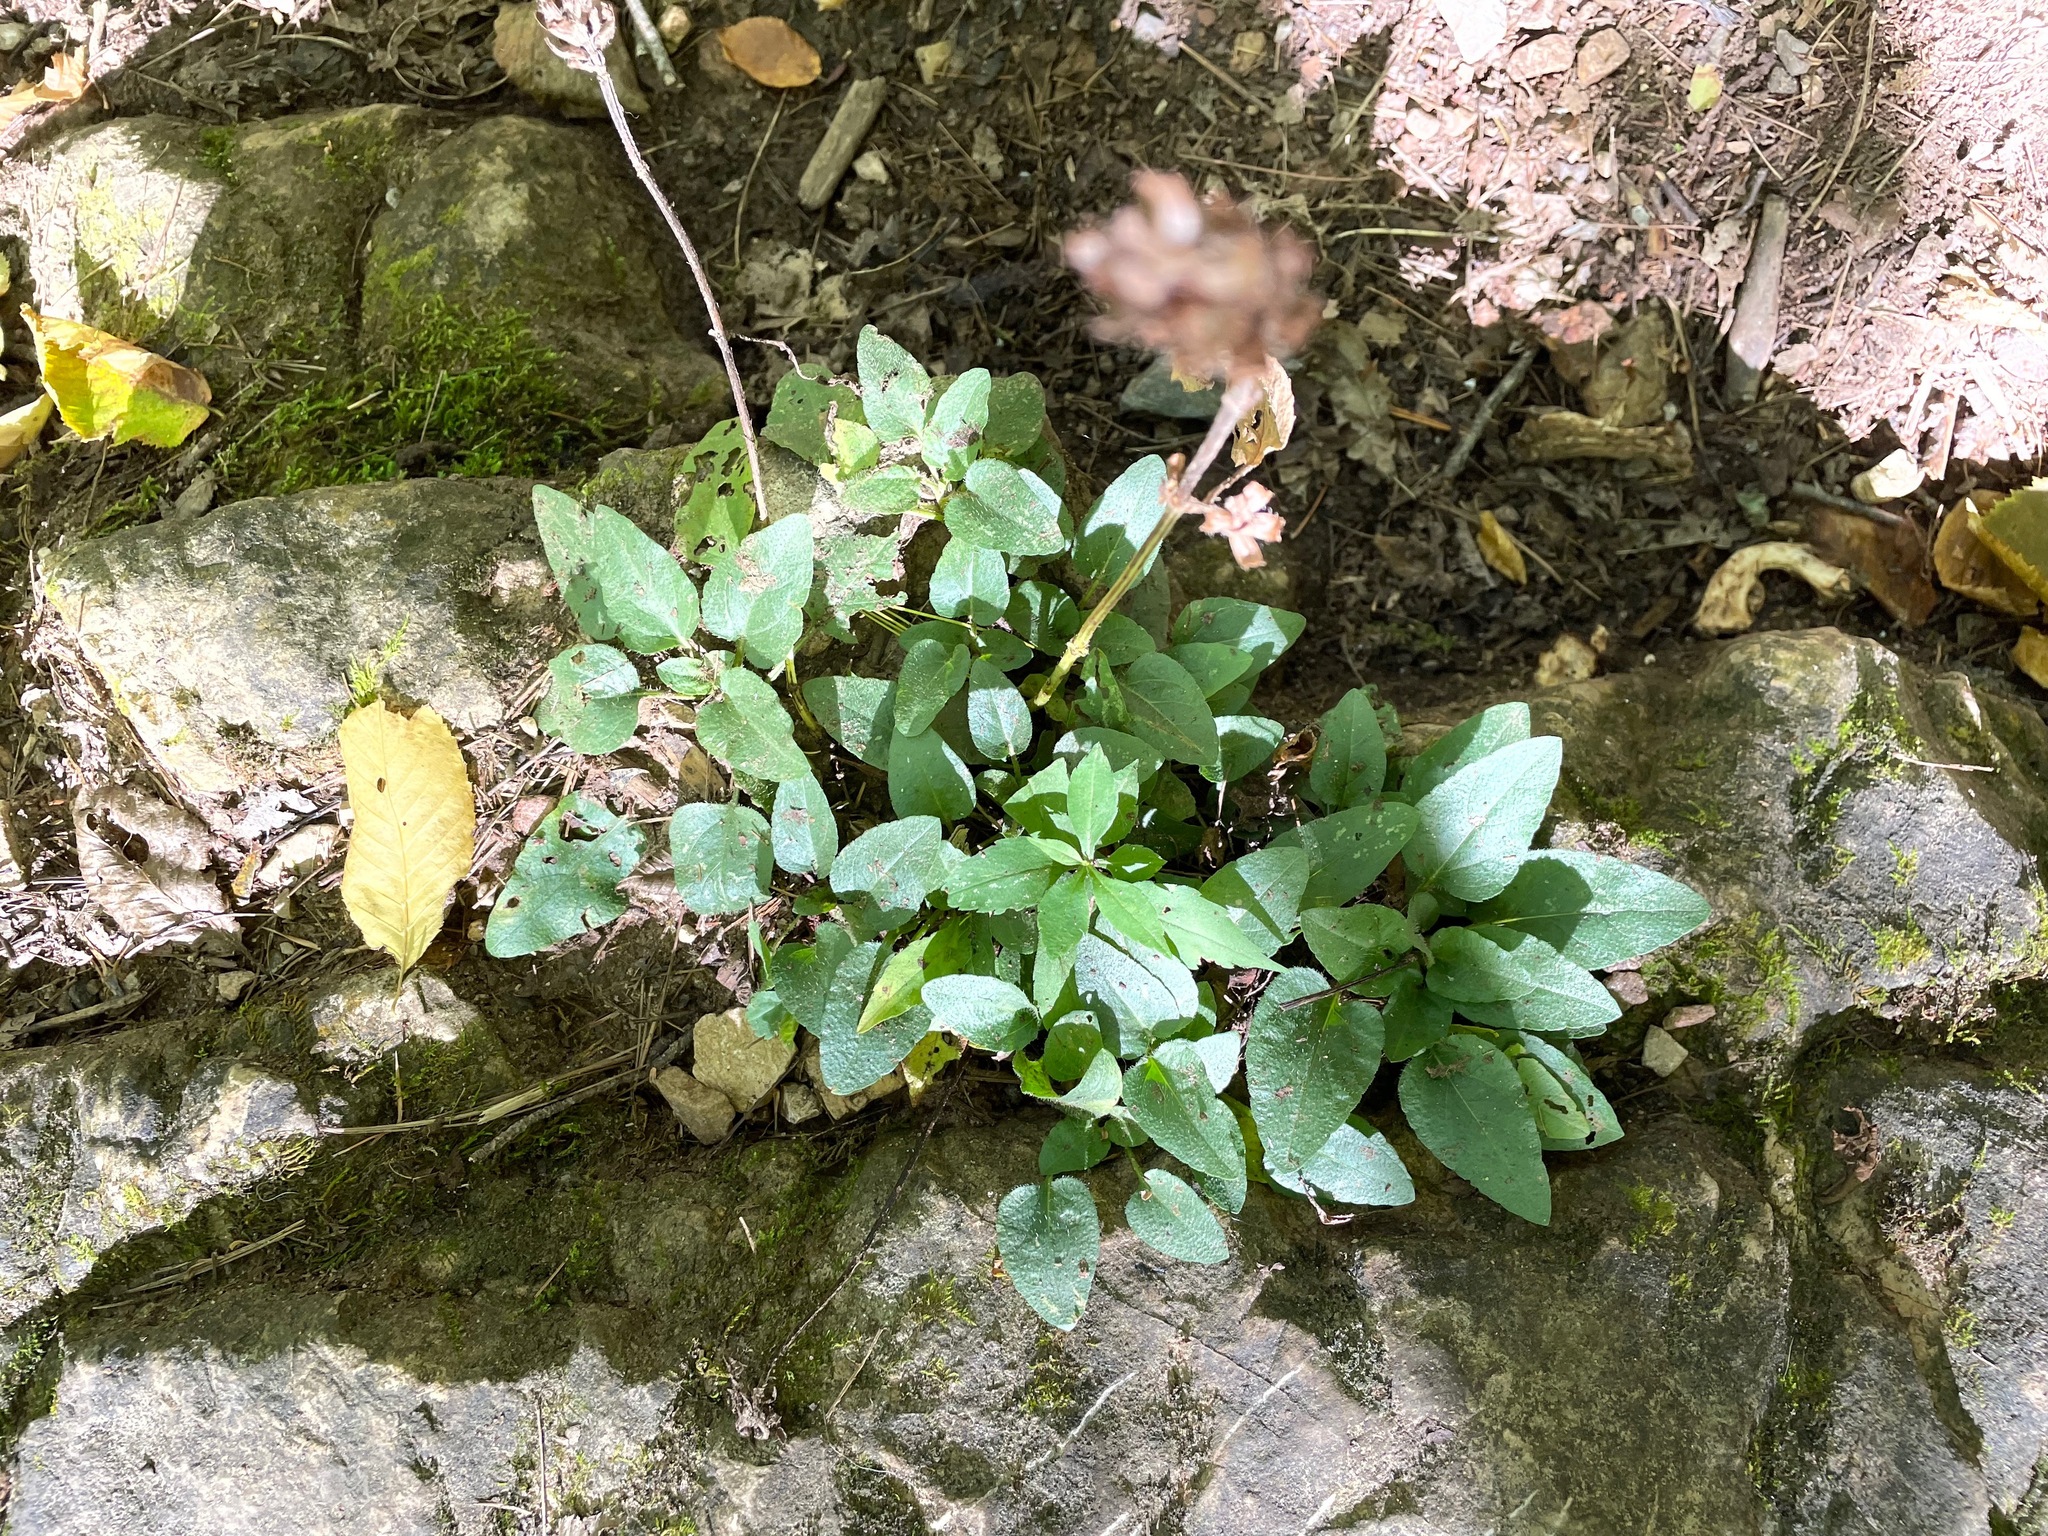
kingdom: Plantae
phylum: Tracheophyta
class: Magnoliopsida
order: Lamiales
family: Lamiaceae
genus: Prunella
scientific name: Prunella vulgaris
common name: Heal-all
